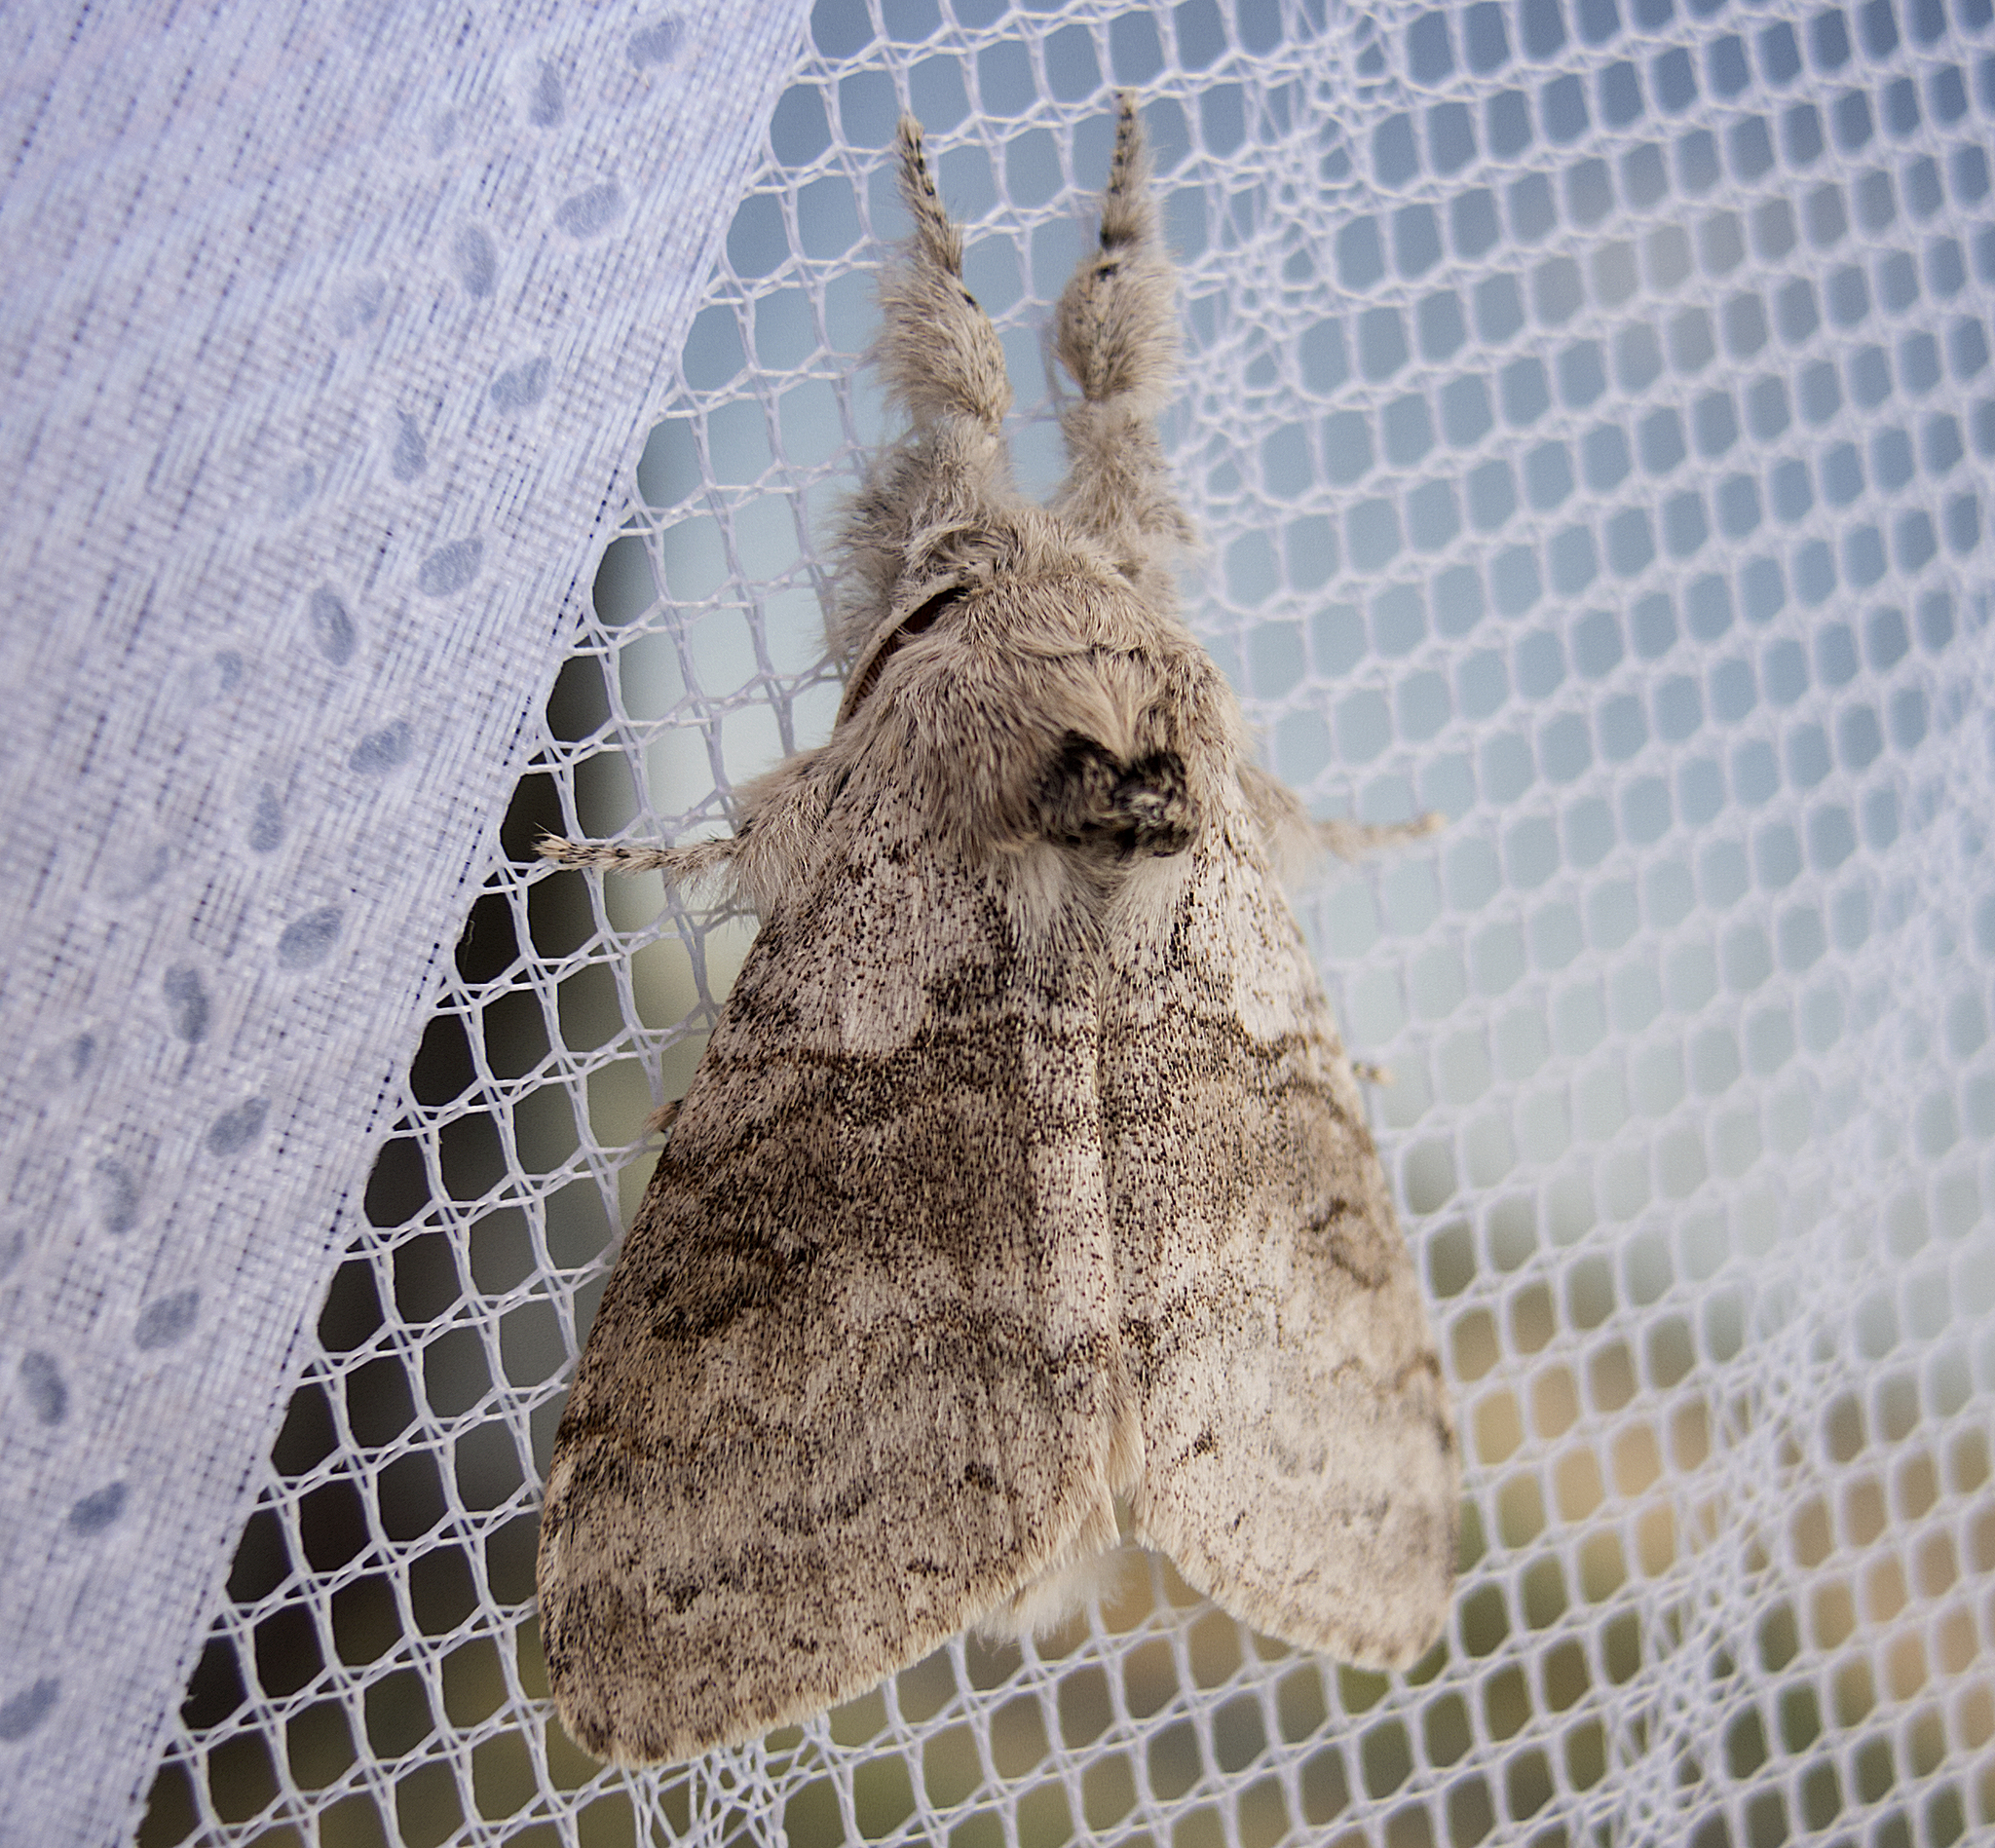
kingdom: Animalia
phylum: Arthropoda
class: Insecta
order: Lepidoptera
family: Erebidae
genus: Calliteara
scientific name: Calliteara pudibunda
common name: Pale tussock
